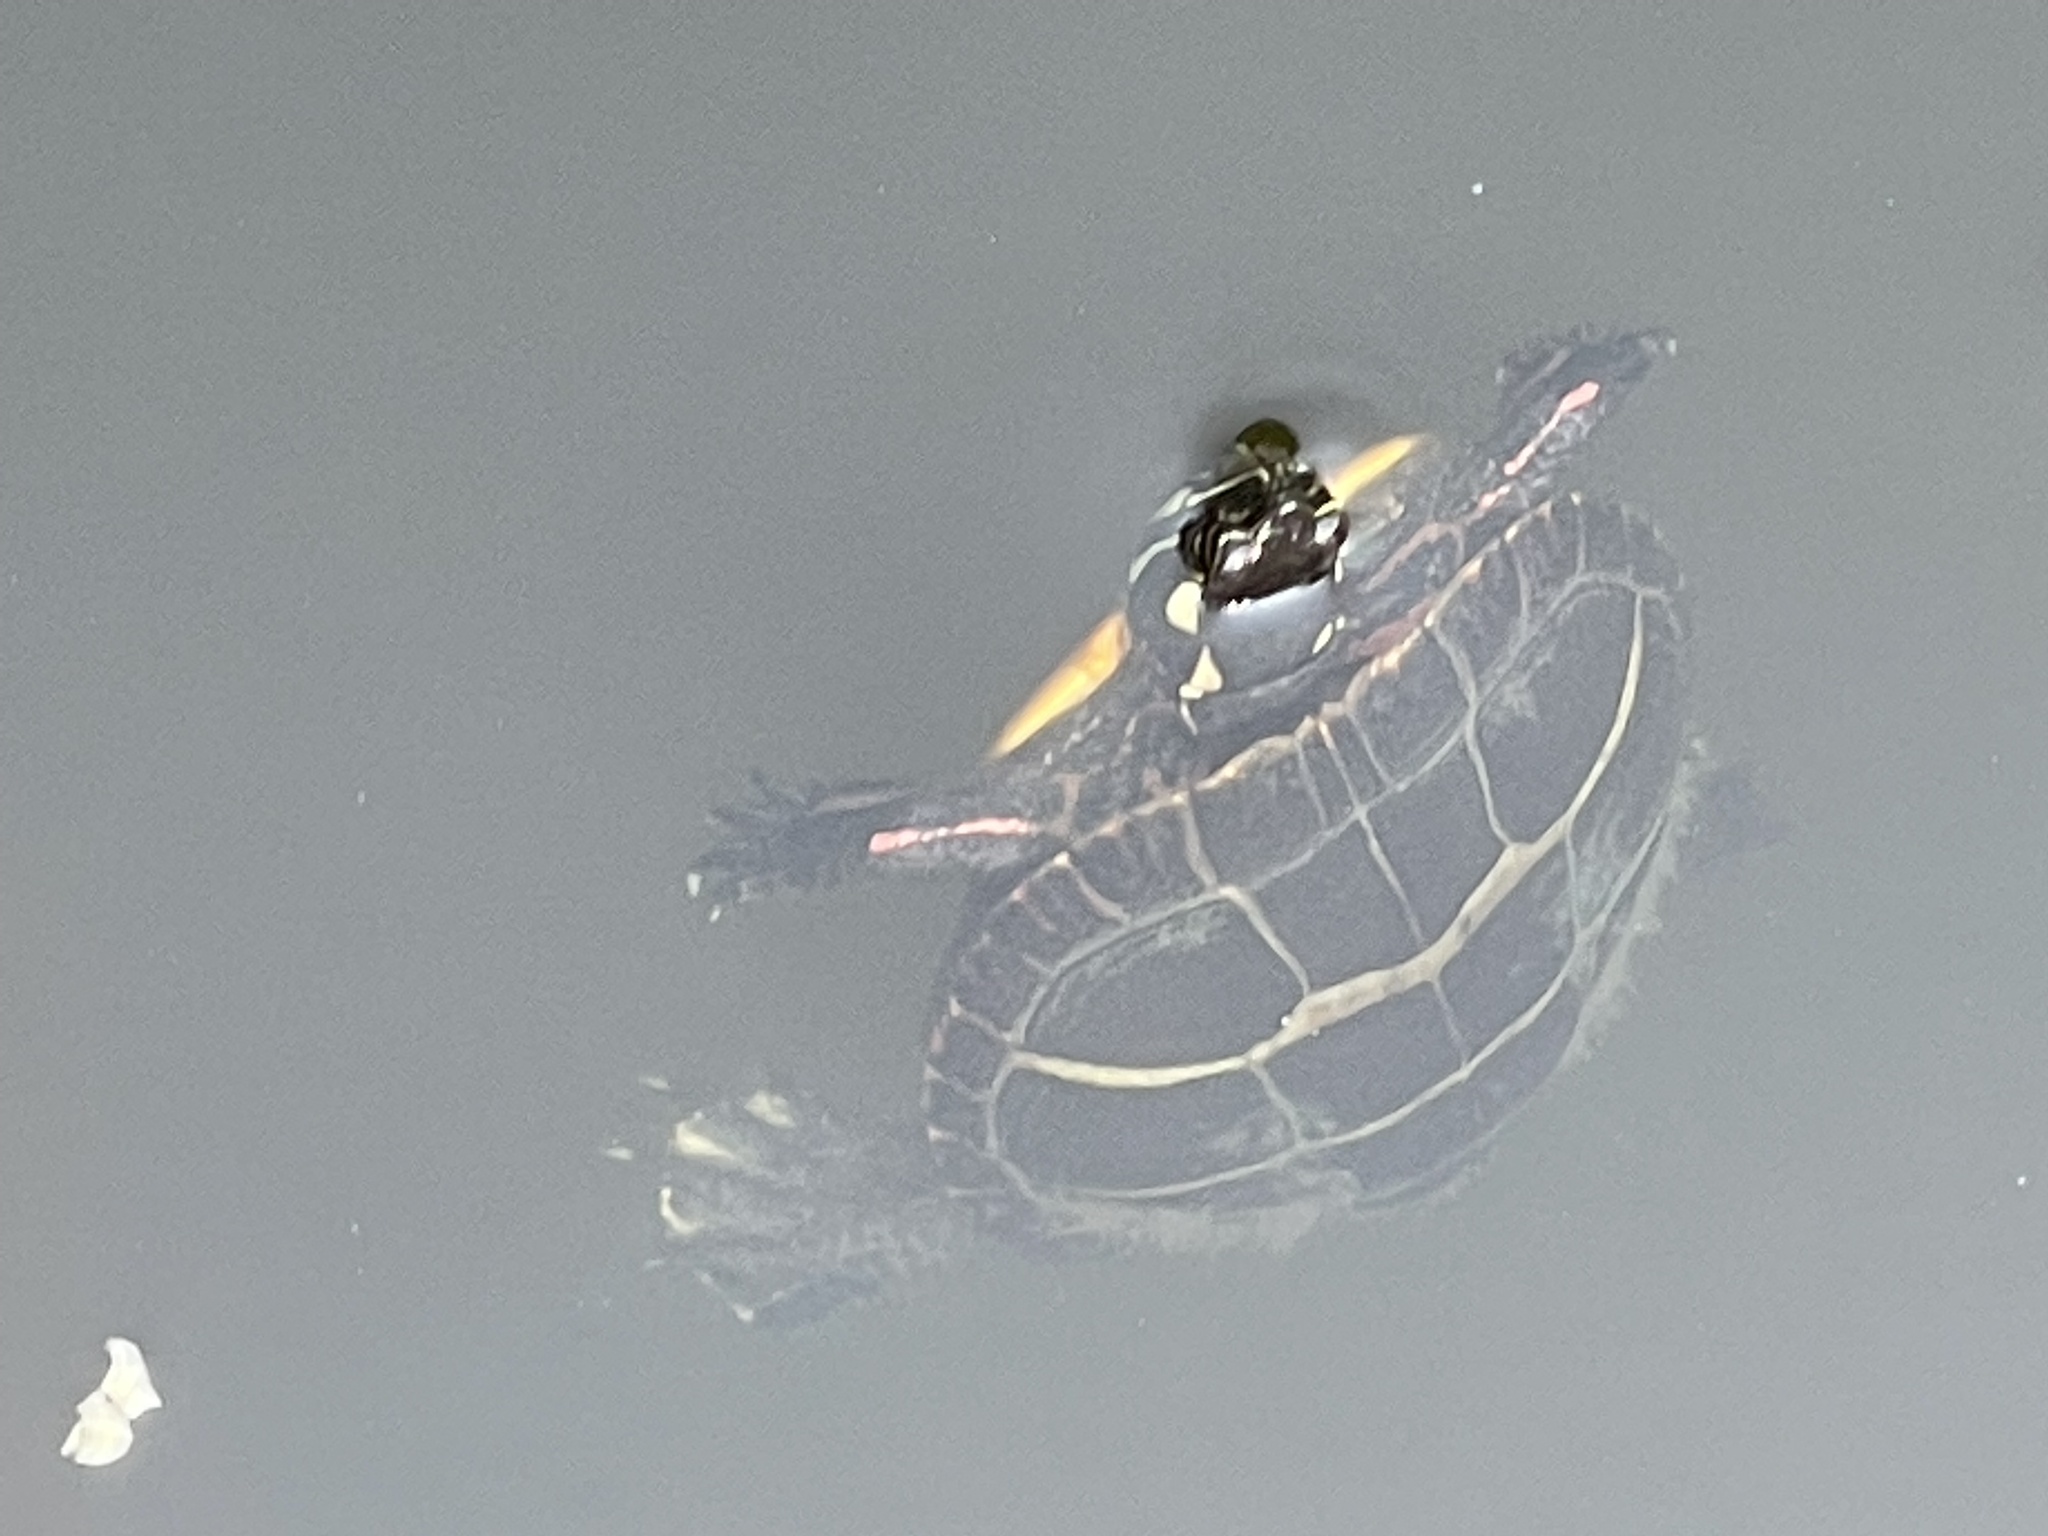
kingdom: Animalia
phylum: Chordata
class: Testudines
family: Emydidae
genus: Chrysemys
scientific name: Chrysemys picta
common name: Painted turtle
